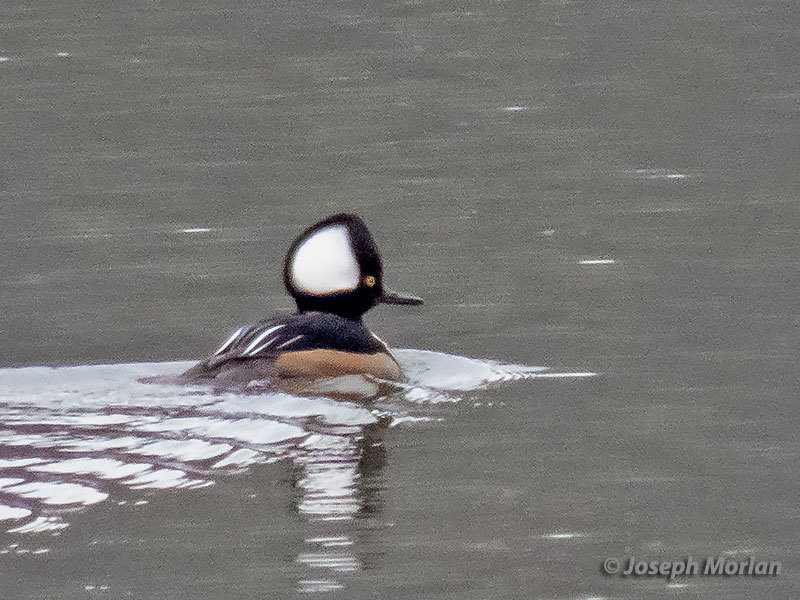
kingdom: Animalia
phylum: Chordata
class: Aves
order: Anseriformes
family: Anatidae
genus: Lophodytes
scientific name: Lophodytes cucullatus
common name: Hooded merganser
